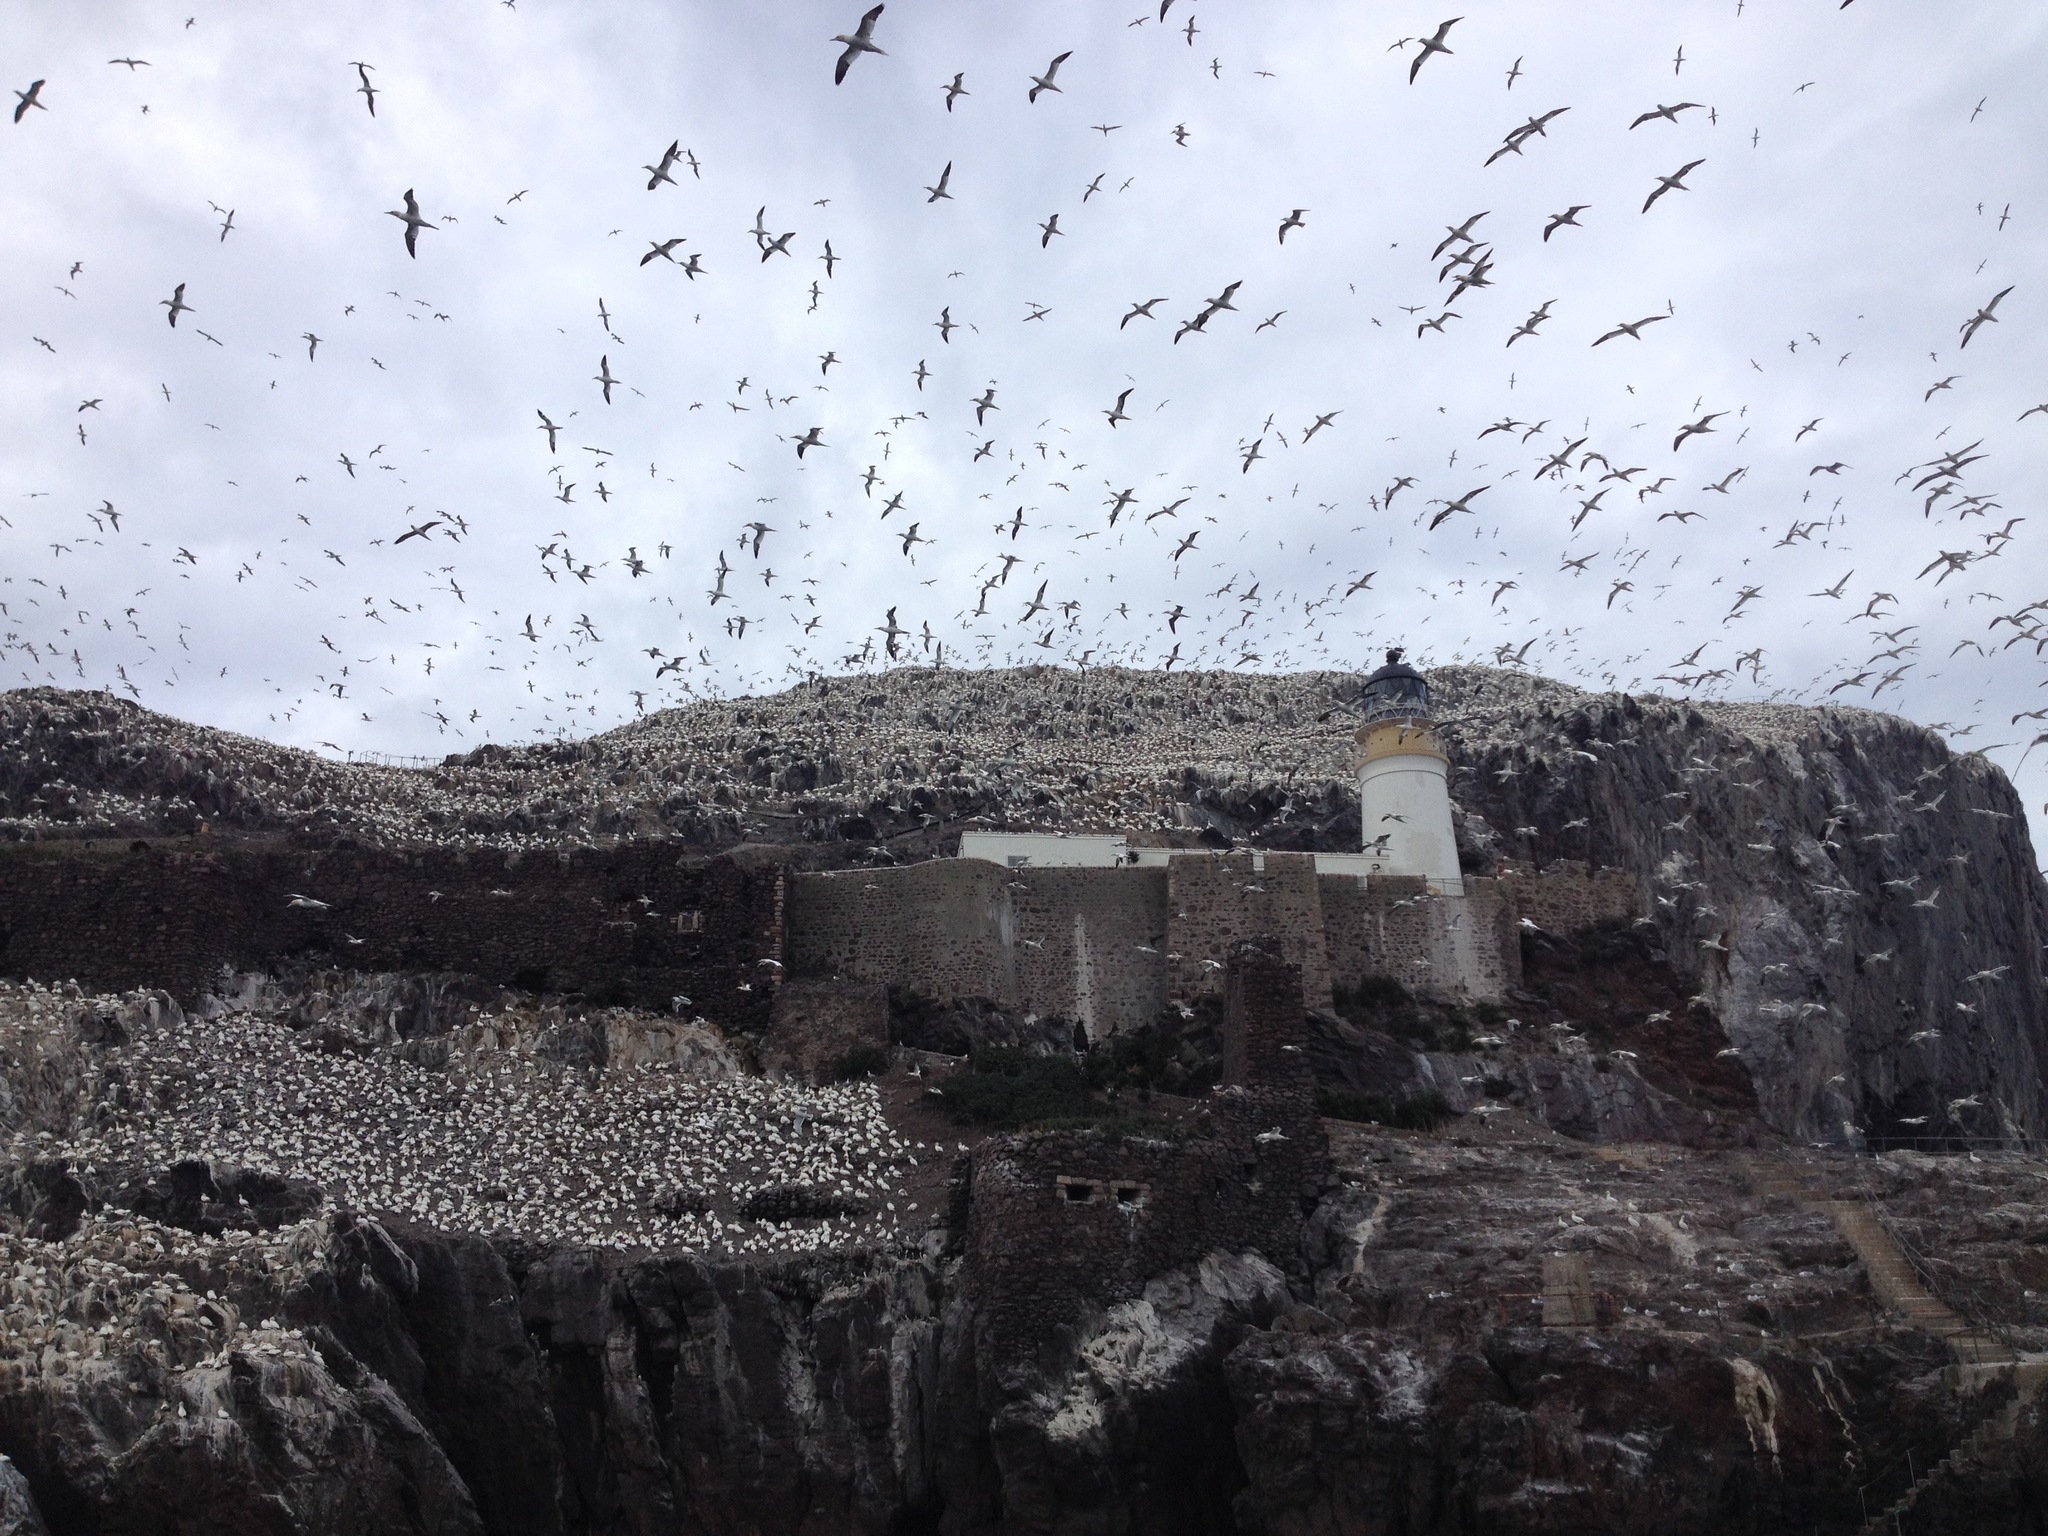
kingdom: Animalia
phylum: Chordata
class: Aves
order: Suliformes
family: Sulidae
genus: Morus
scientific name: Morus bassanus
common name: Northern gannet
